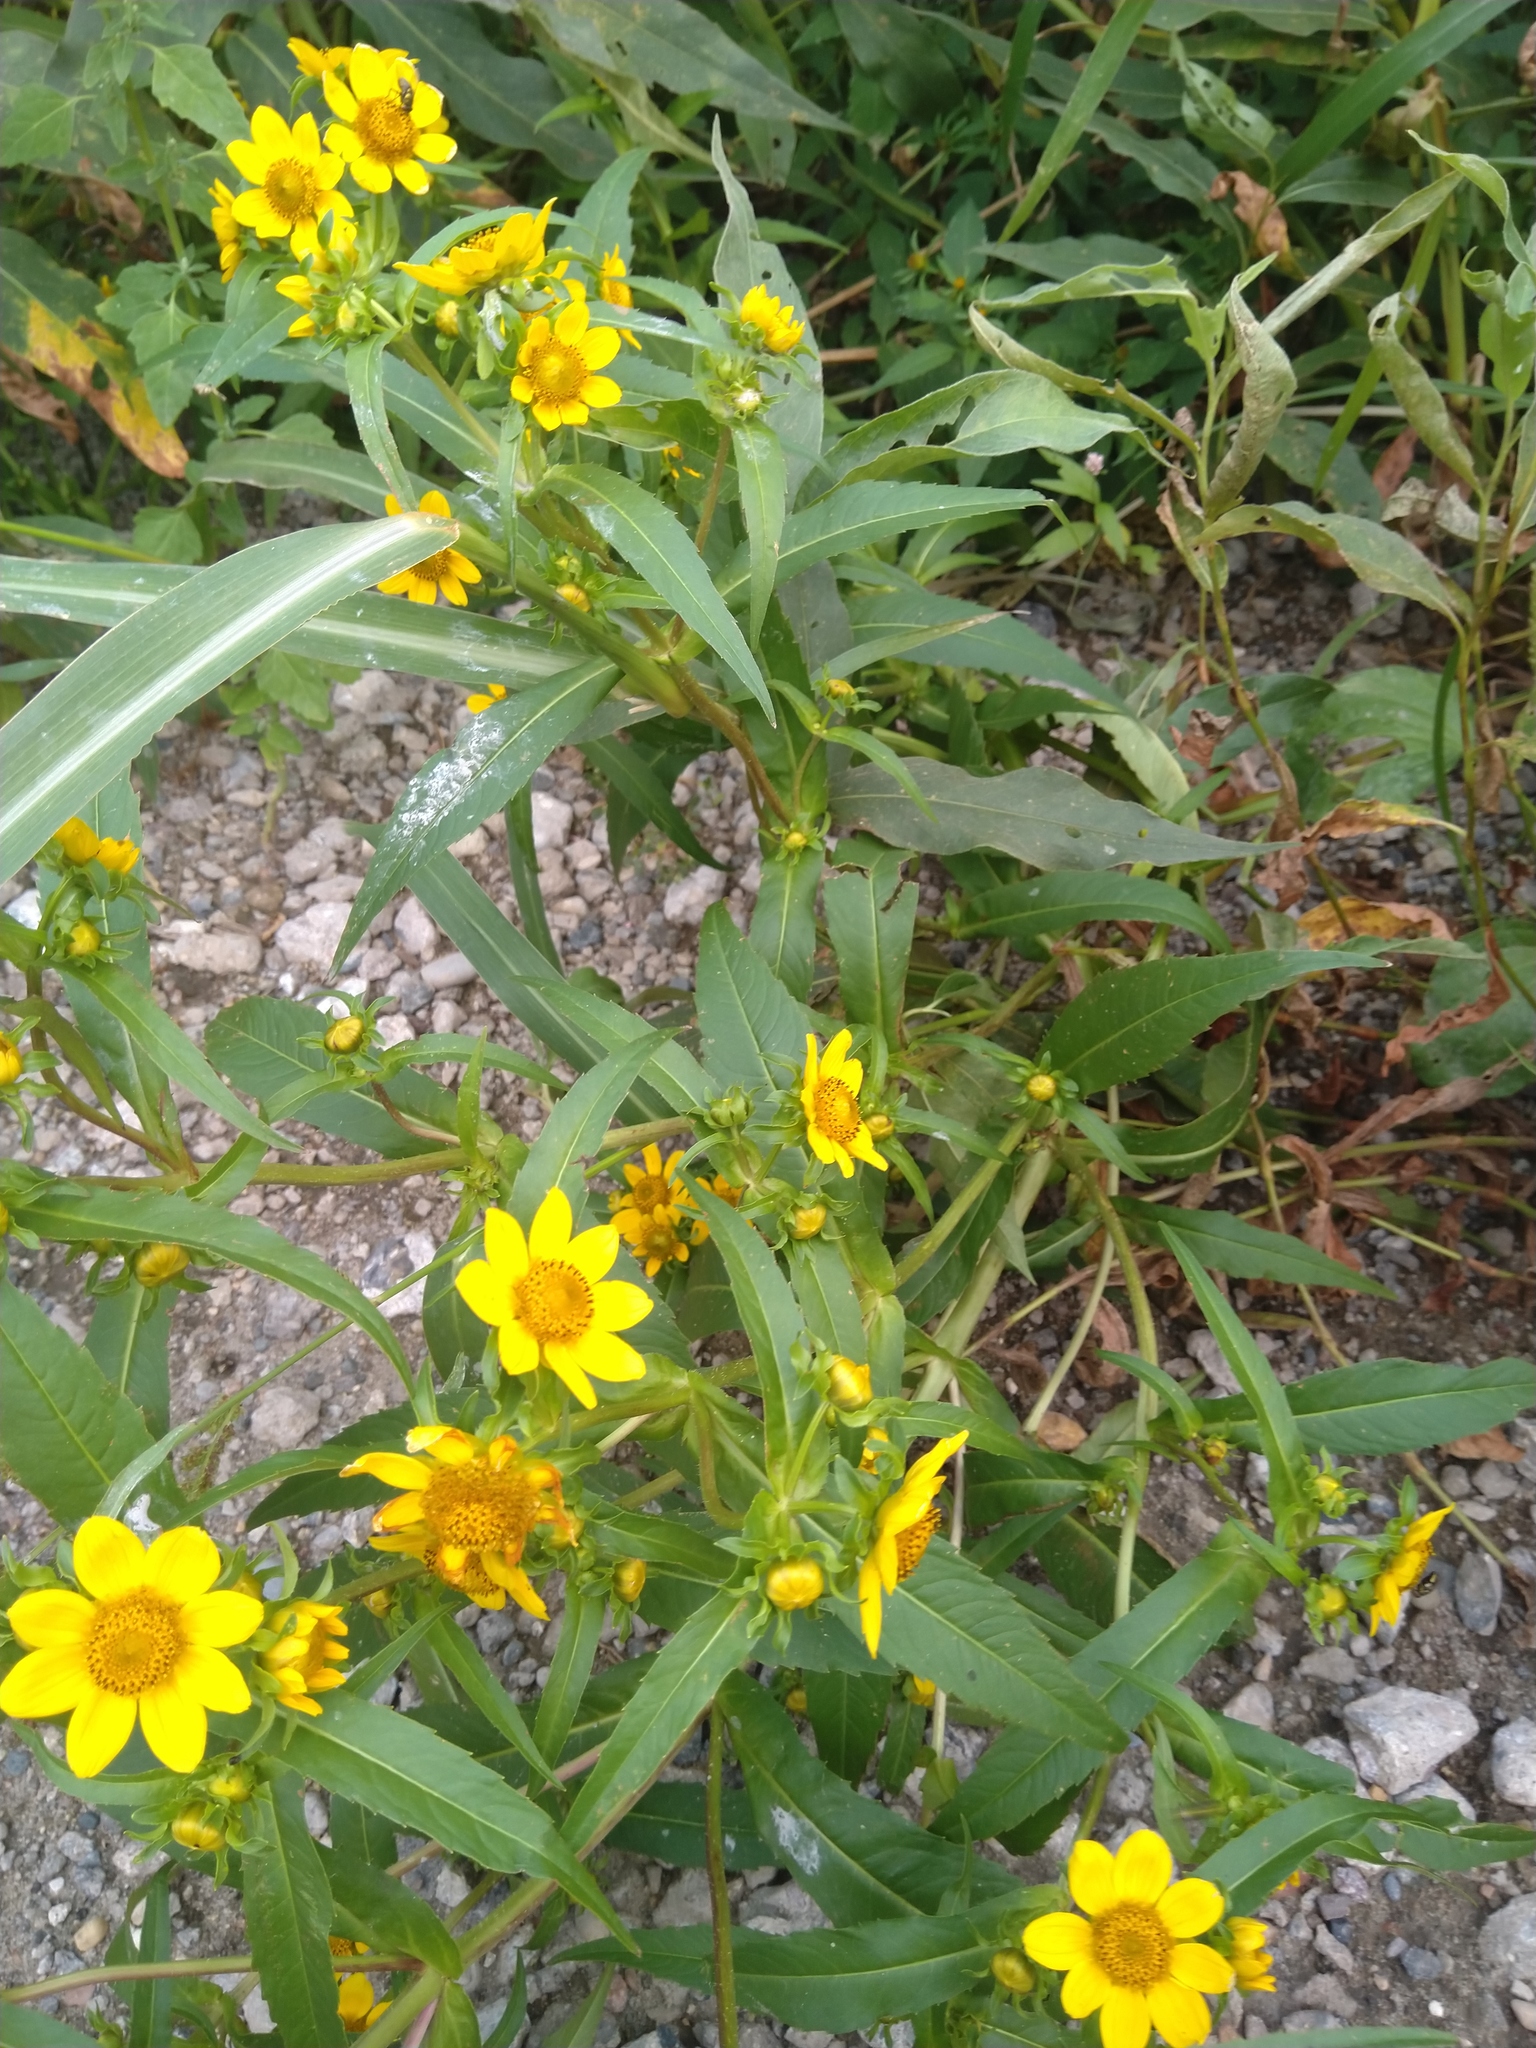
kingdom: Plantae
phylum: Tracheophyta
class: Magnoliopsida
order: Asterales
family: Asteraceae
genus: Bidens
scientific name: Bidens cernua
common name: Nodding bur-marigold
